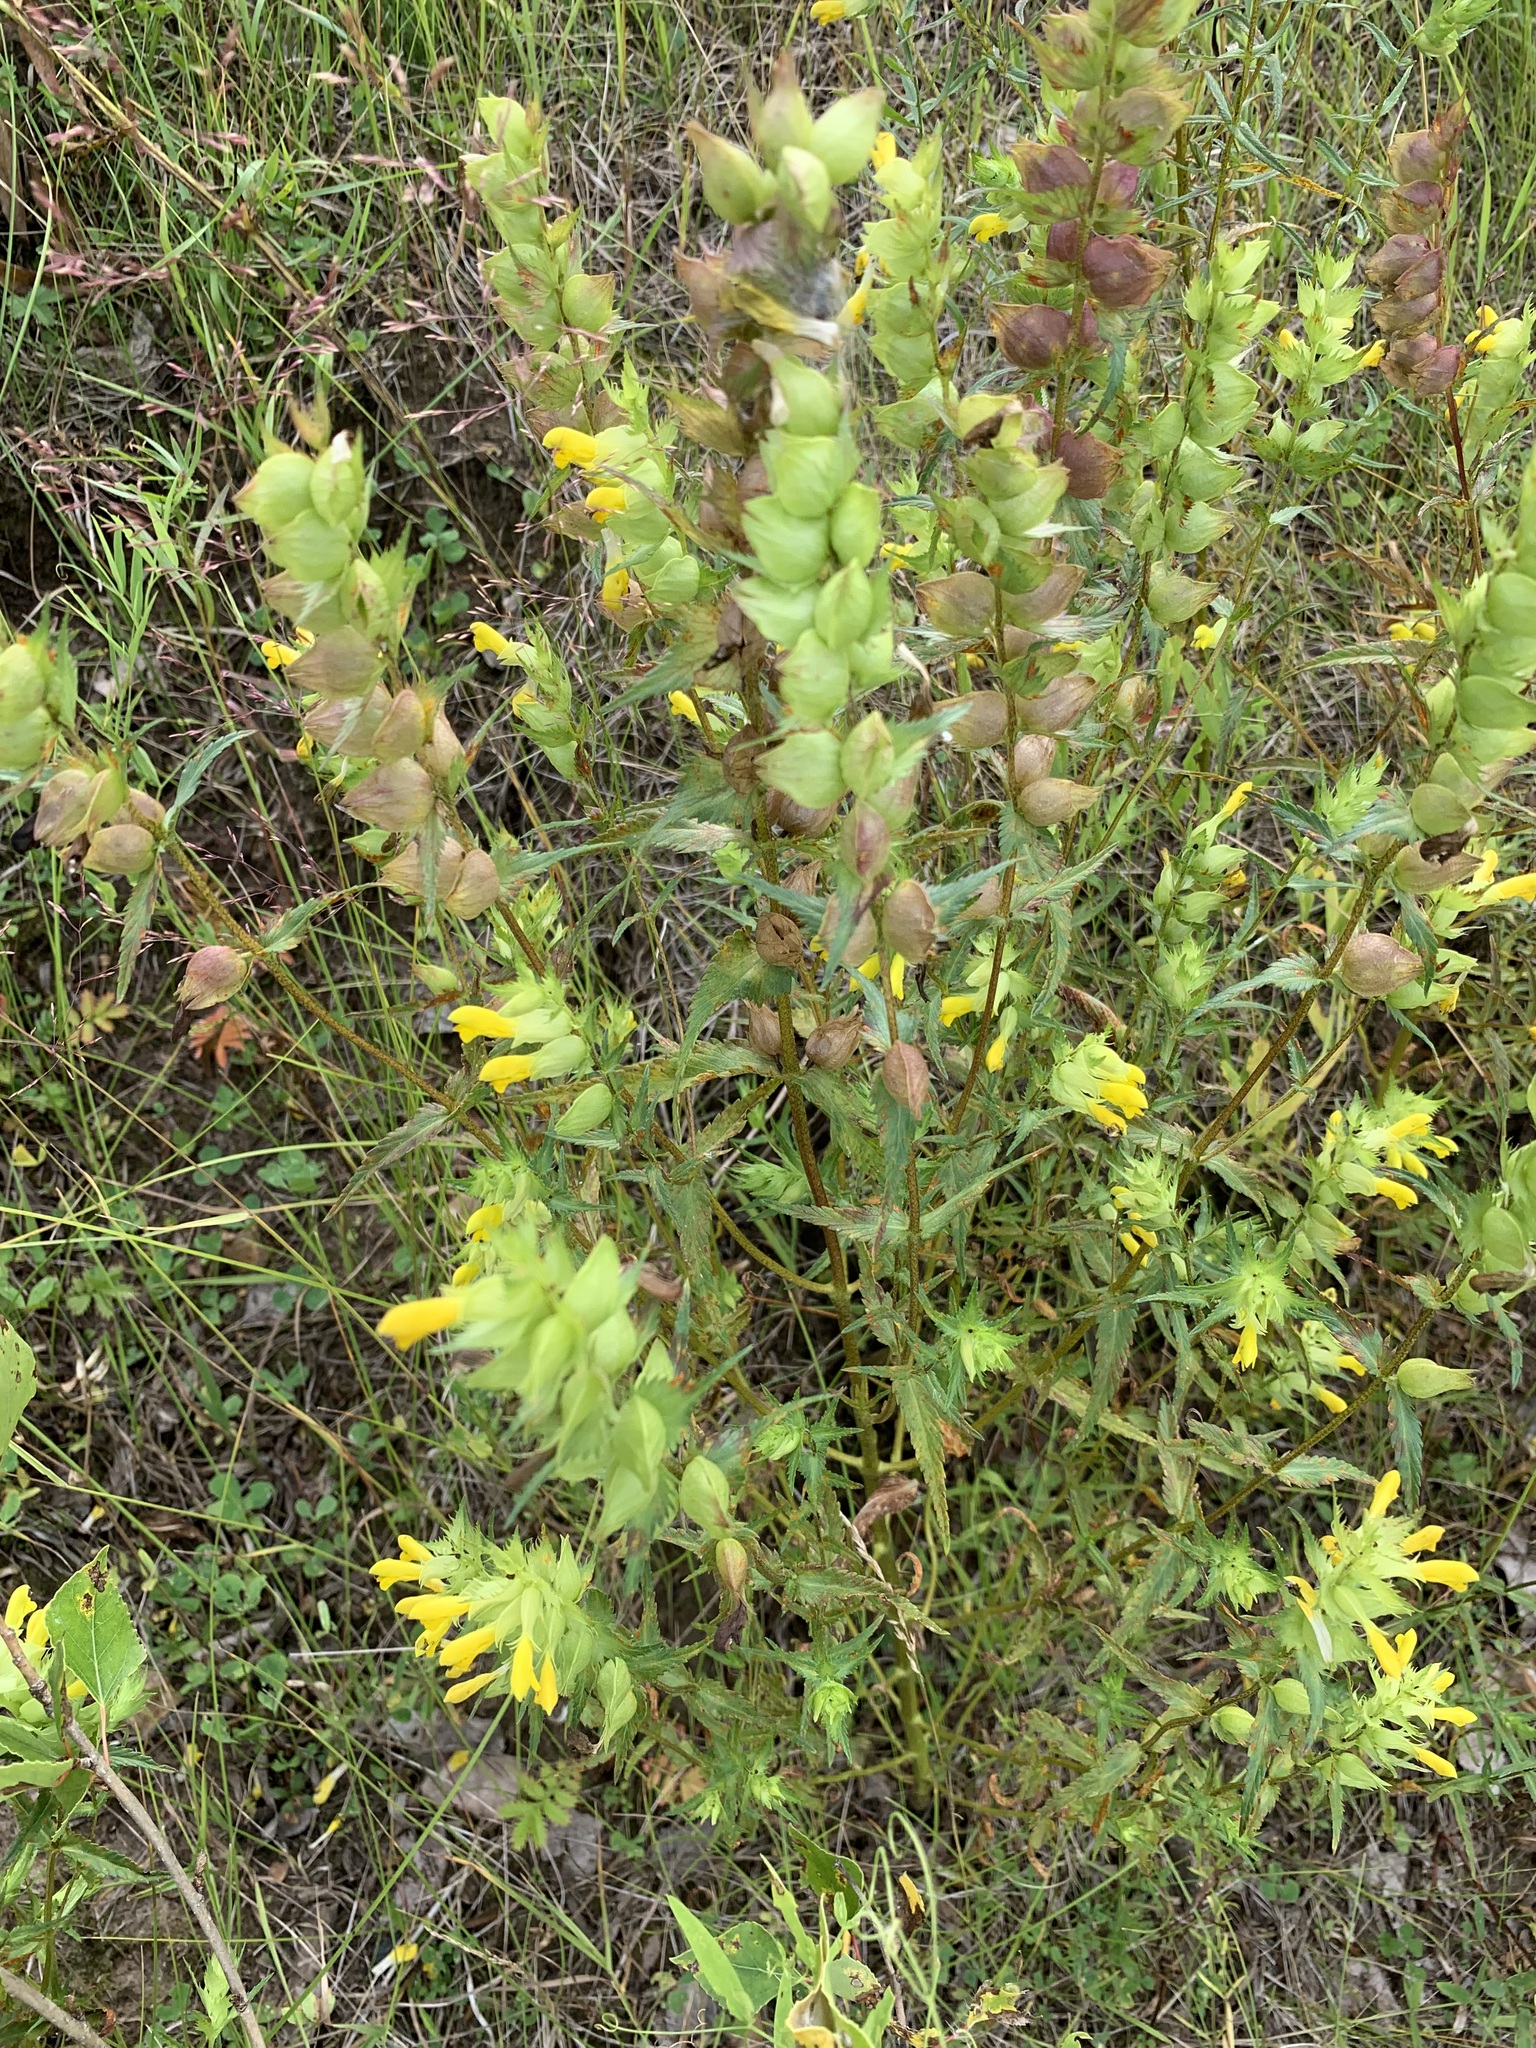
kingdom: Plantae
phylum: Tracheophyta
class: Magnoliopsida
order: Lamiales
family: Orobanchaceae
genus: Rhinanthus
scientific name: Rhinanthus serotinus
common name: Late-flowering yellow rattle
